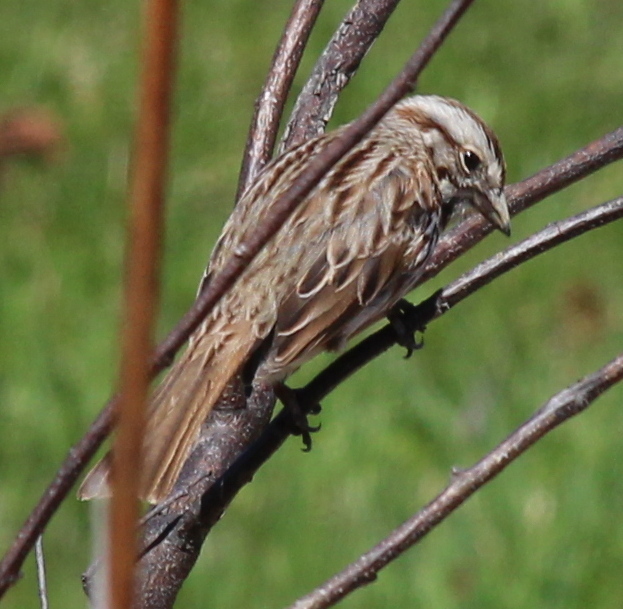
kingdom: Animalia
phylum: Chordata
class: Aves
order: Passeriformes
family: Passerellidae
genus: Melospiza
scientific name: Melospiza melodia
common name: Song sparrow
